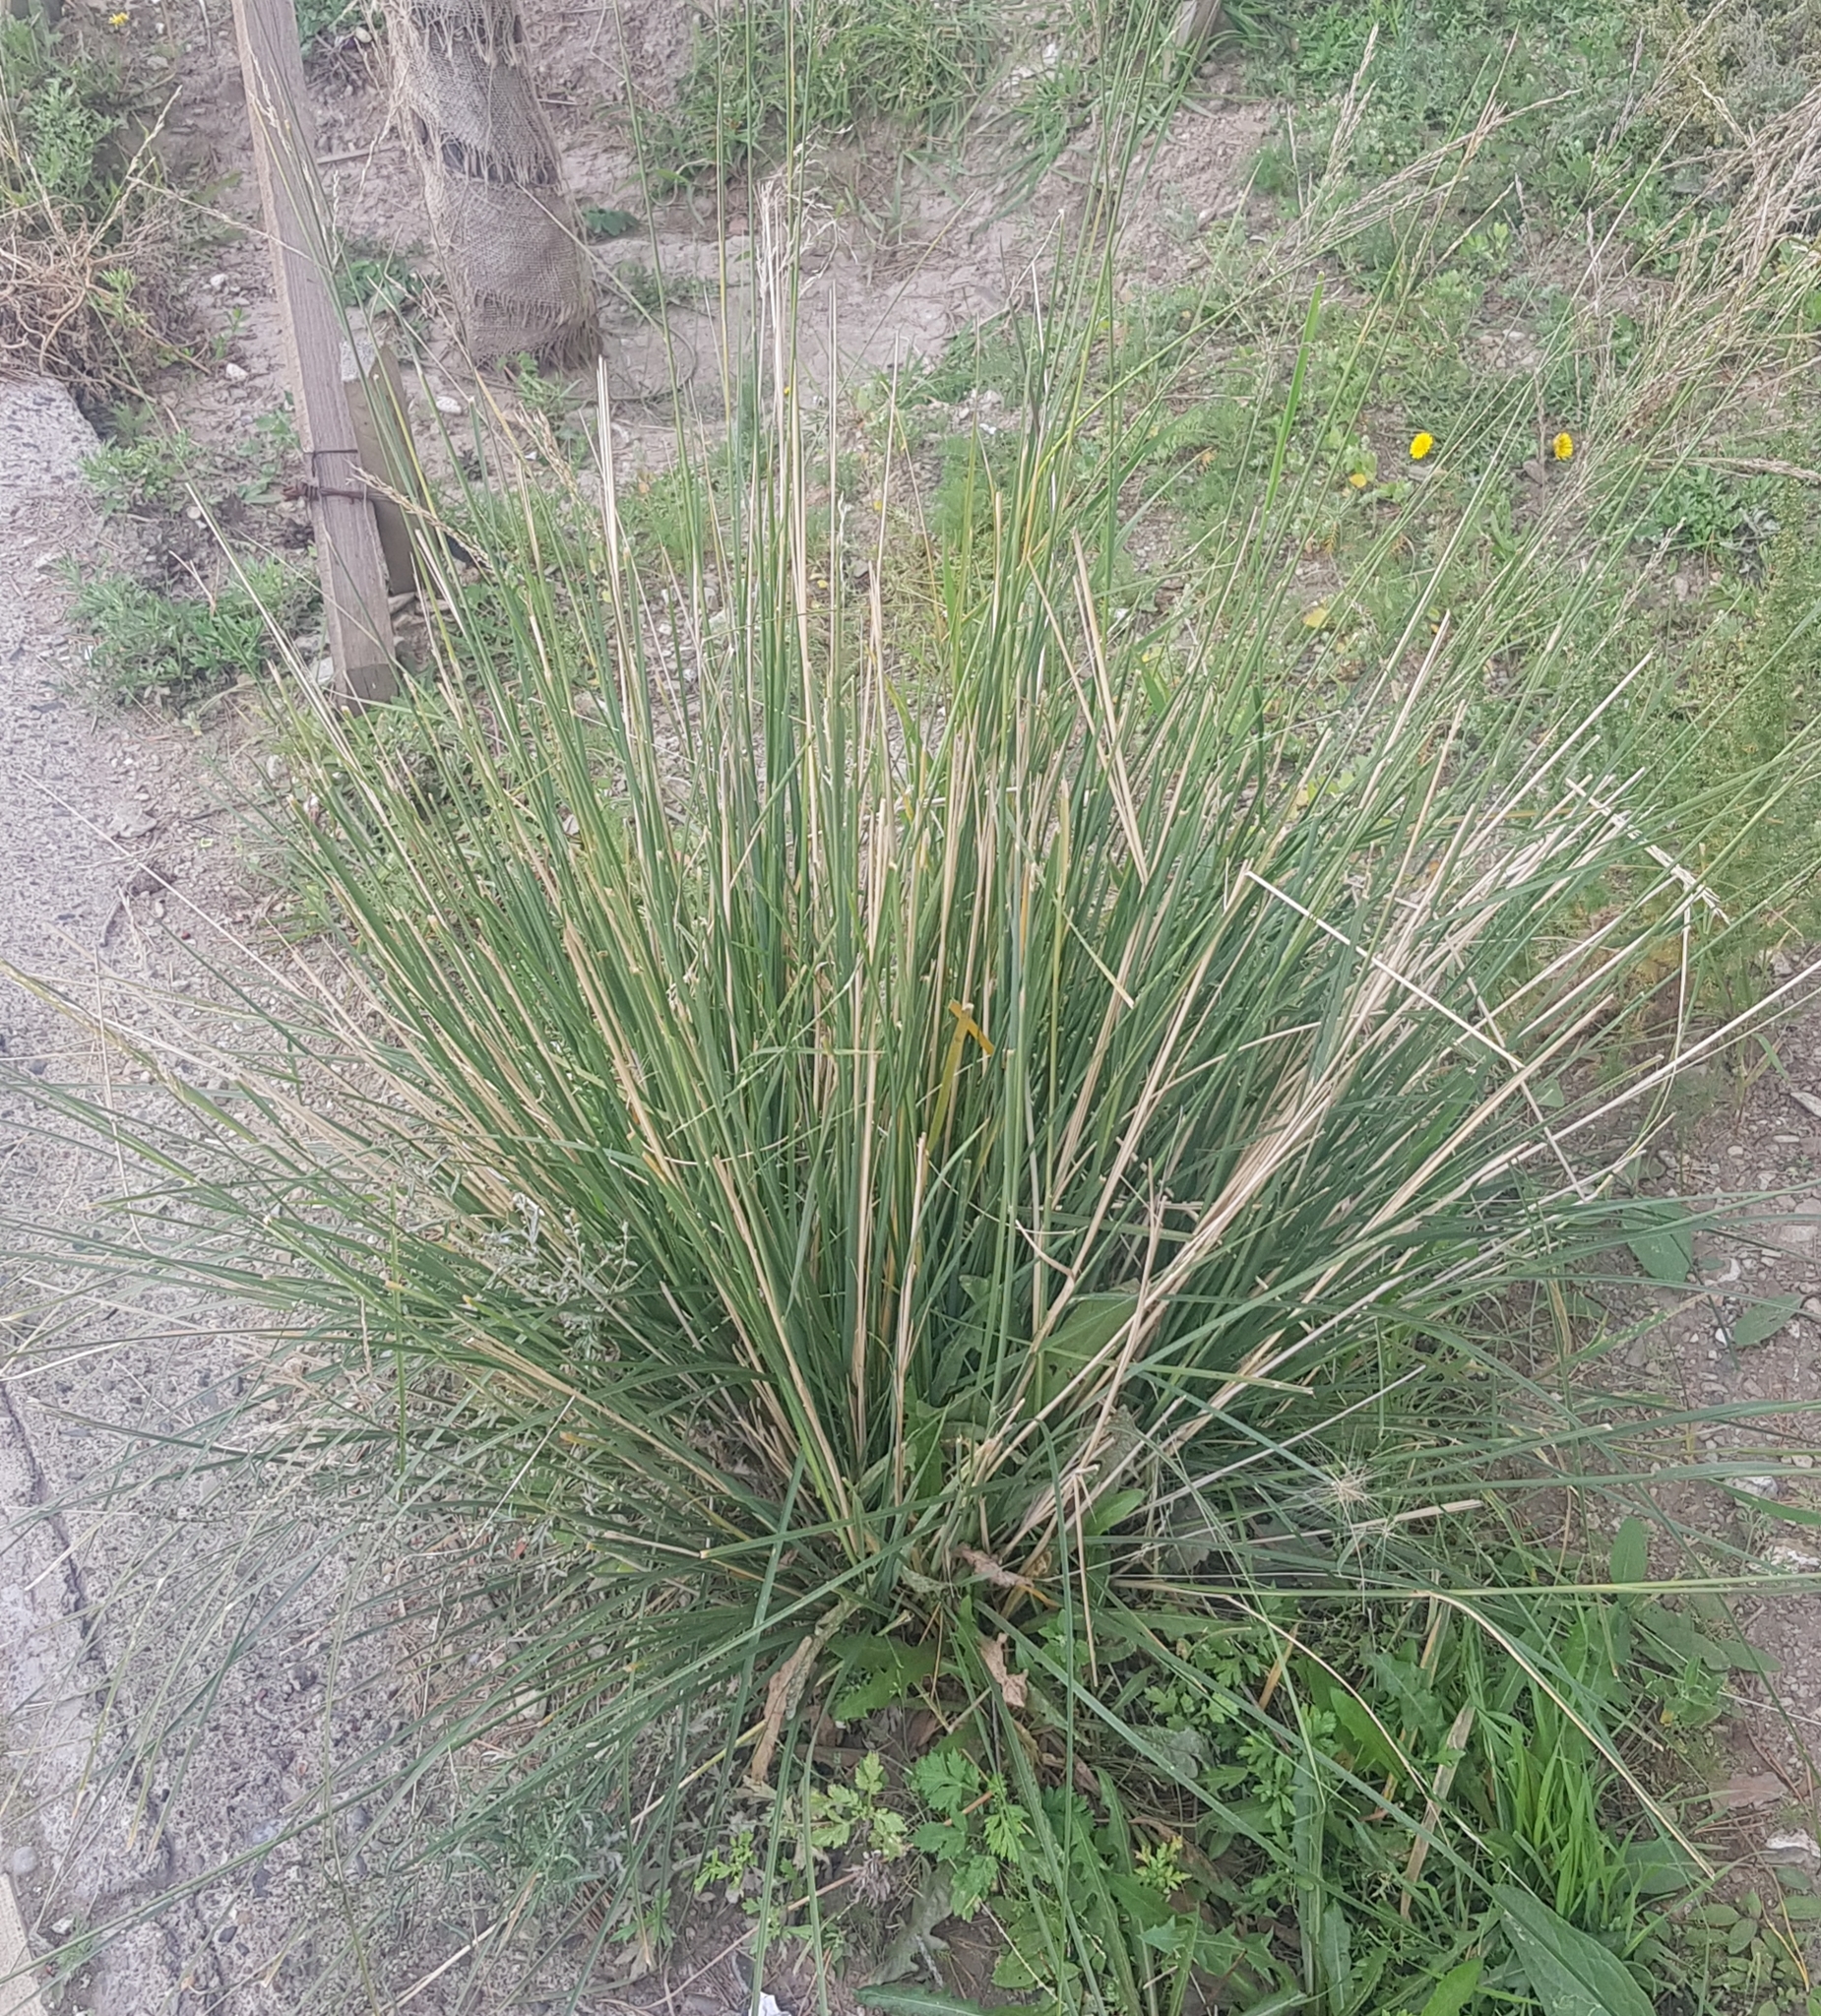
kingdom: Plantae
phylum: Tracheophyta
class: Liliopsida
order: Poales
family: Poaceae
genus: Neotrinia
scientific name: Neotrinia splendens
